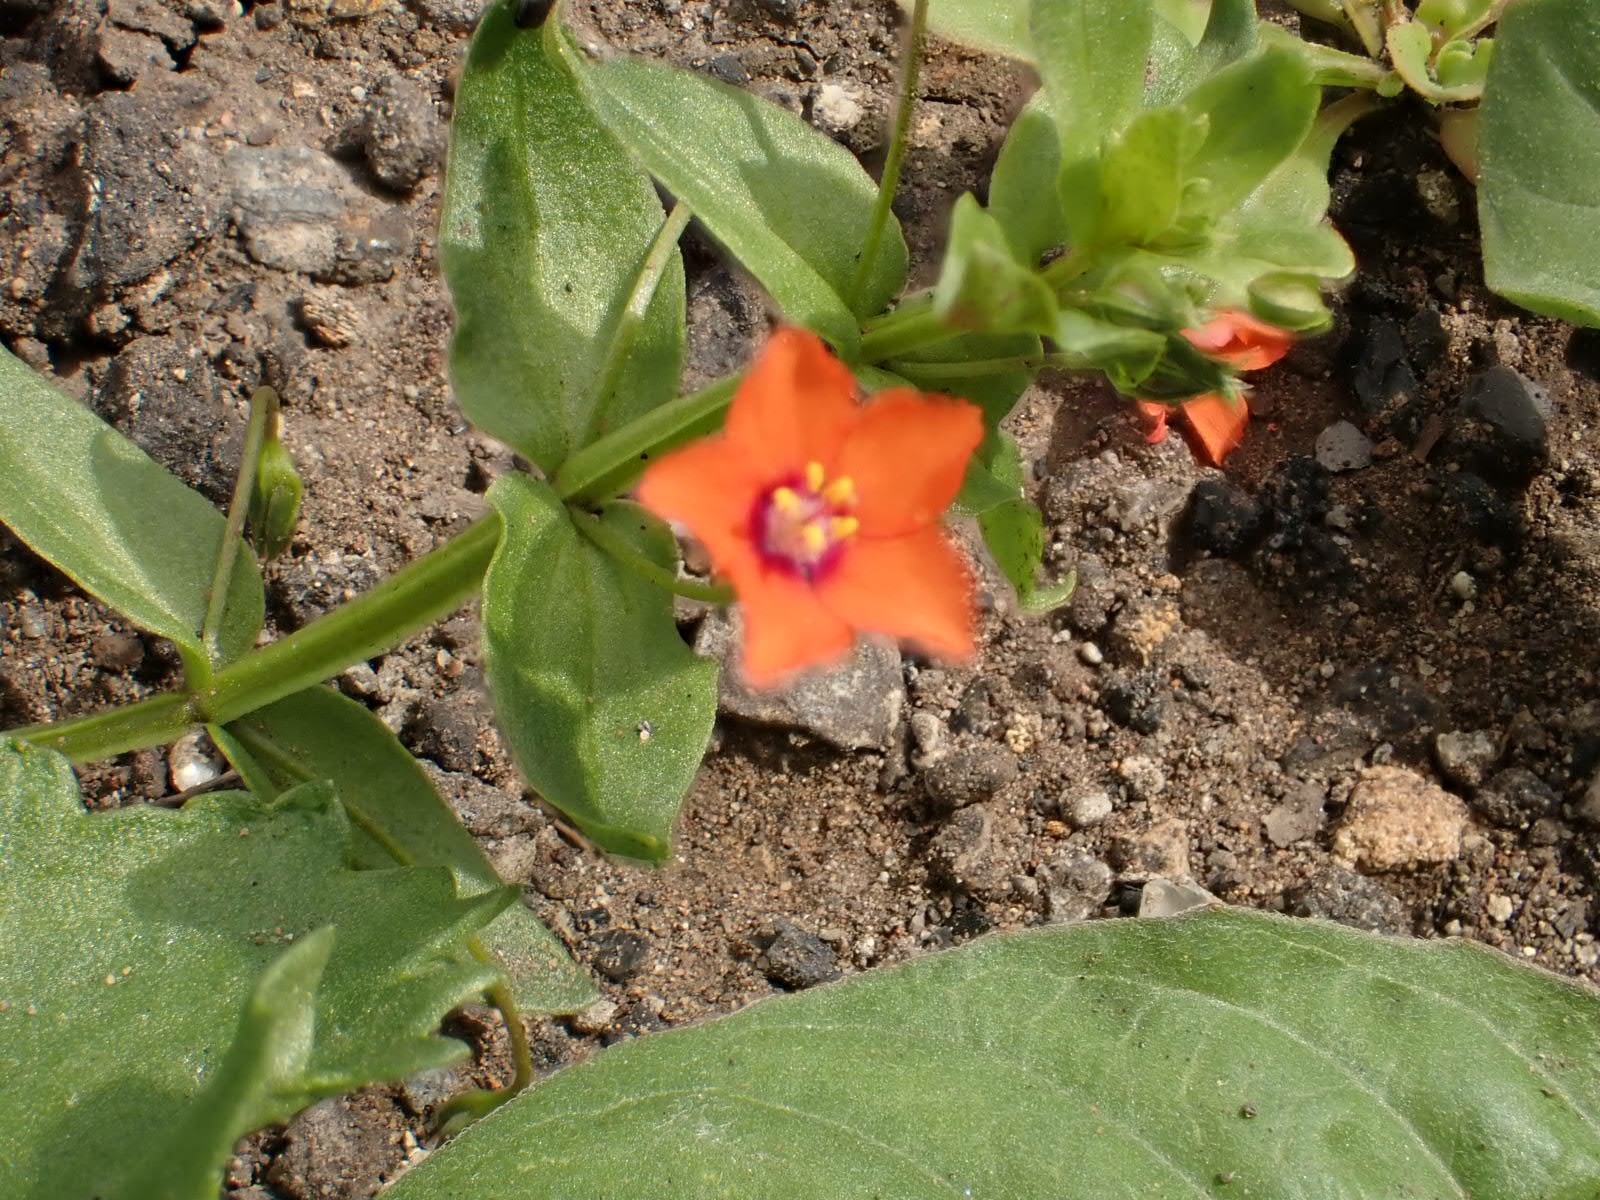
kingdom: Plantae
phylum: Tracheophyta
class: Magnoliopsida
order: Ericales
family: Primulaceae
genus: Lysimachia
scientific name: Lysimachia arvensis
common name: Scarlet pimpernel
